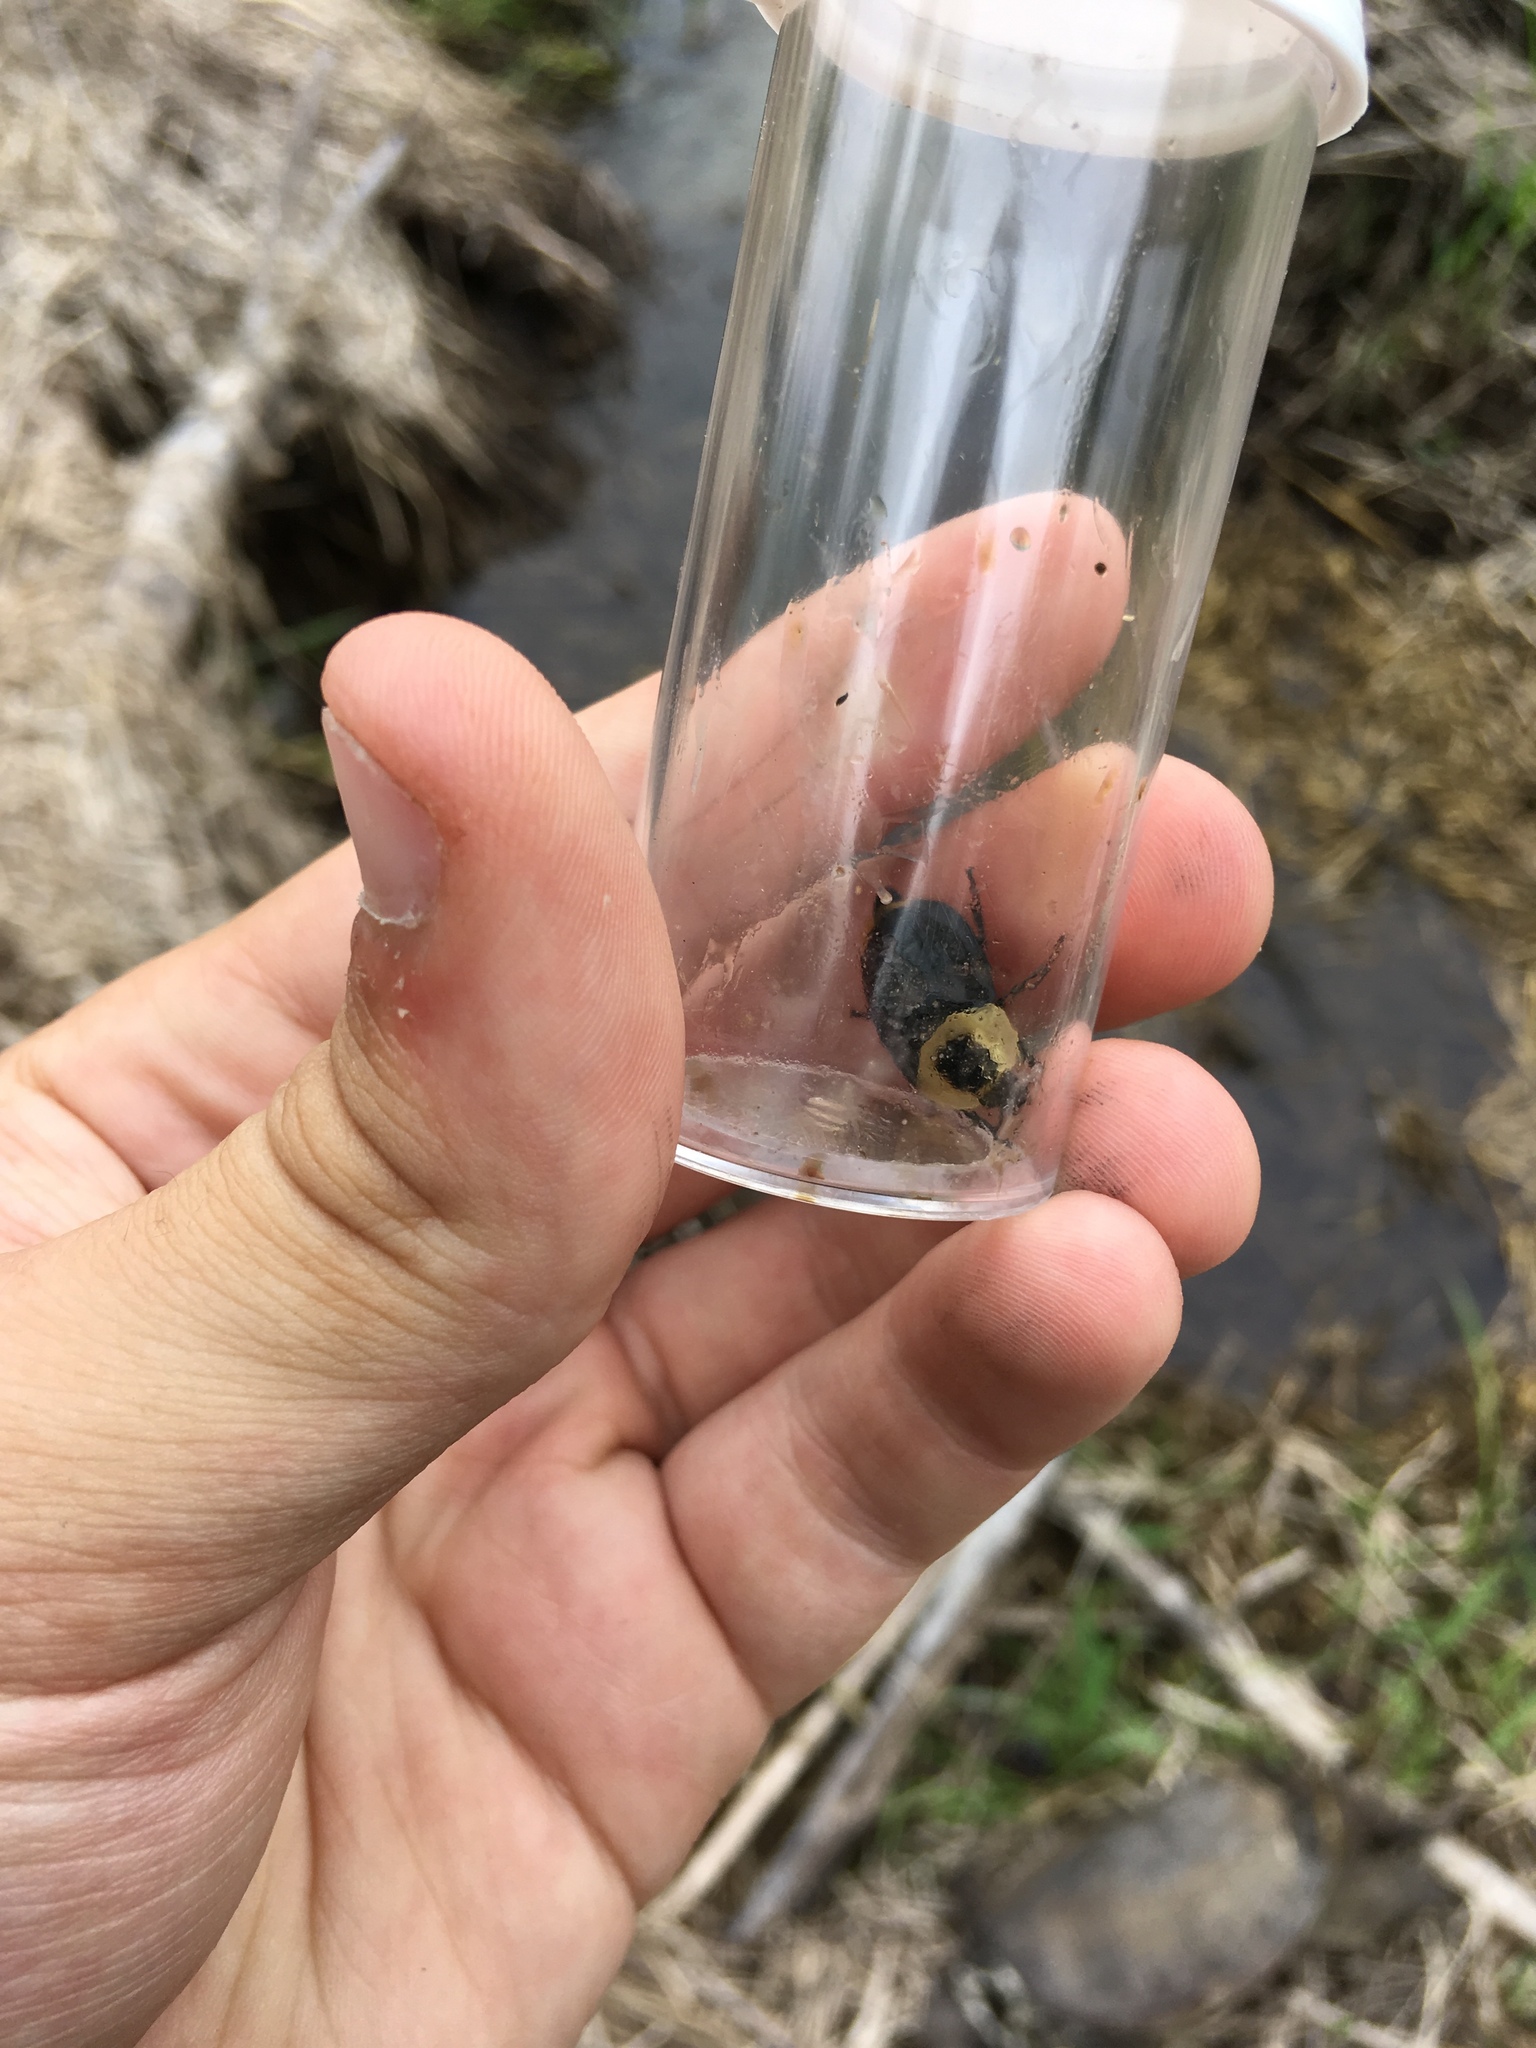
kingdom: Animalia
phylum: Arthropoda
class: Insecta
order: Coleoptera
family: Staphylinidae
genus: Necrophila
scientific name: Necrophila americana
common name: American carrion beetle
